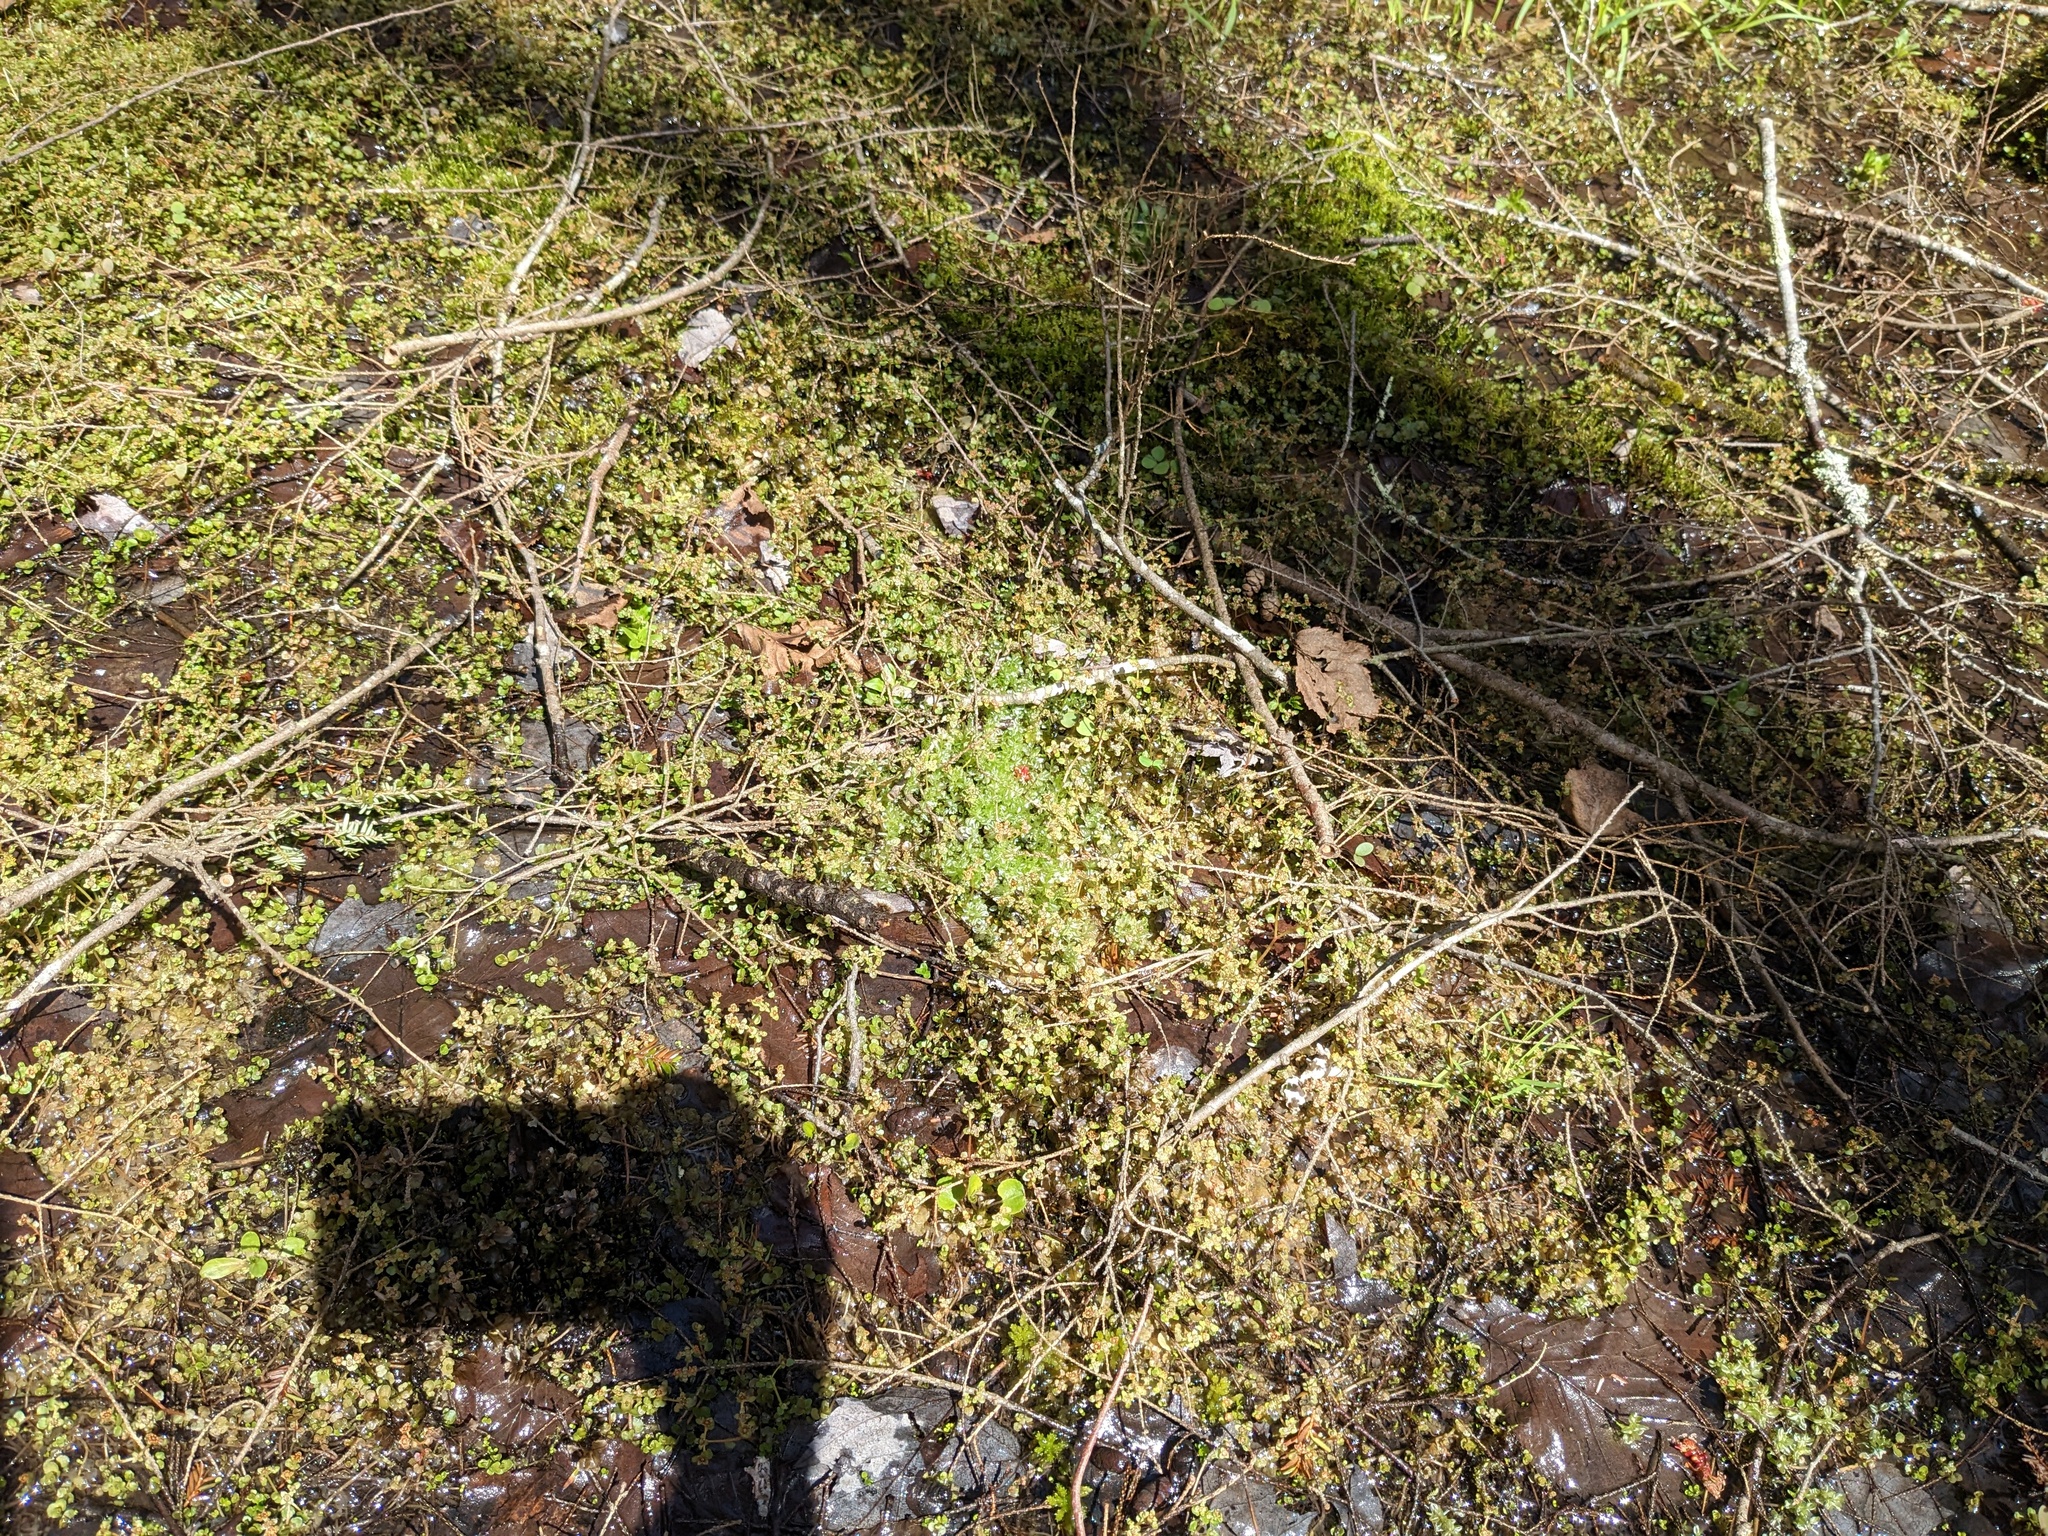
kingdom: Plantae
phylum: Tracheophyta
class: Magnoliopsida
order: Saxifragales
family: Saxifragaceae
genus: Chrysosplenium
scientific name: Chrysosplenium americanum
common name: American golden-saxifrage
